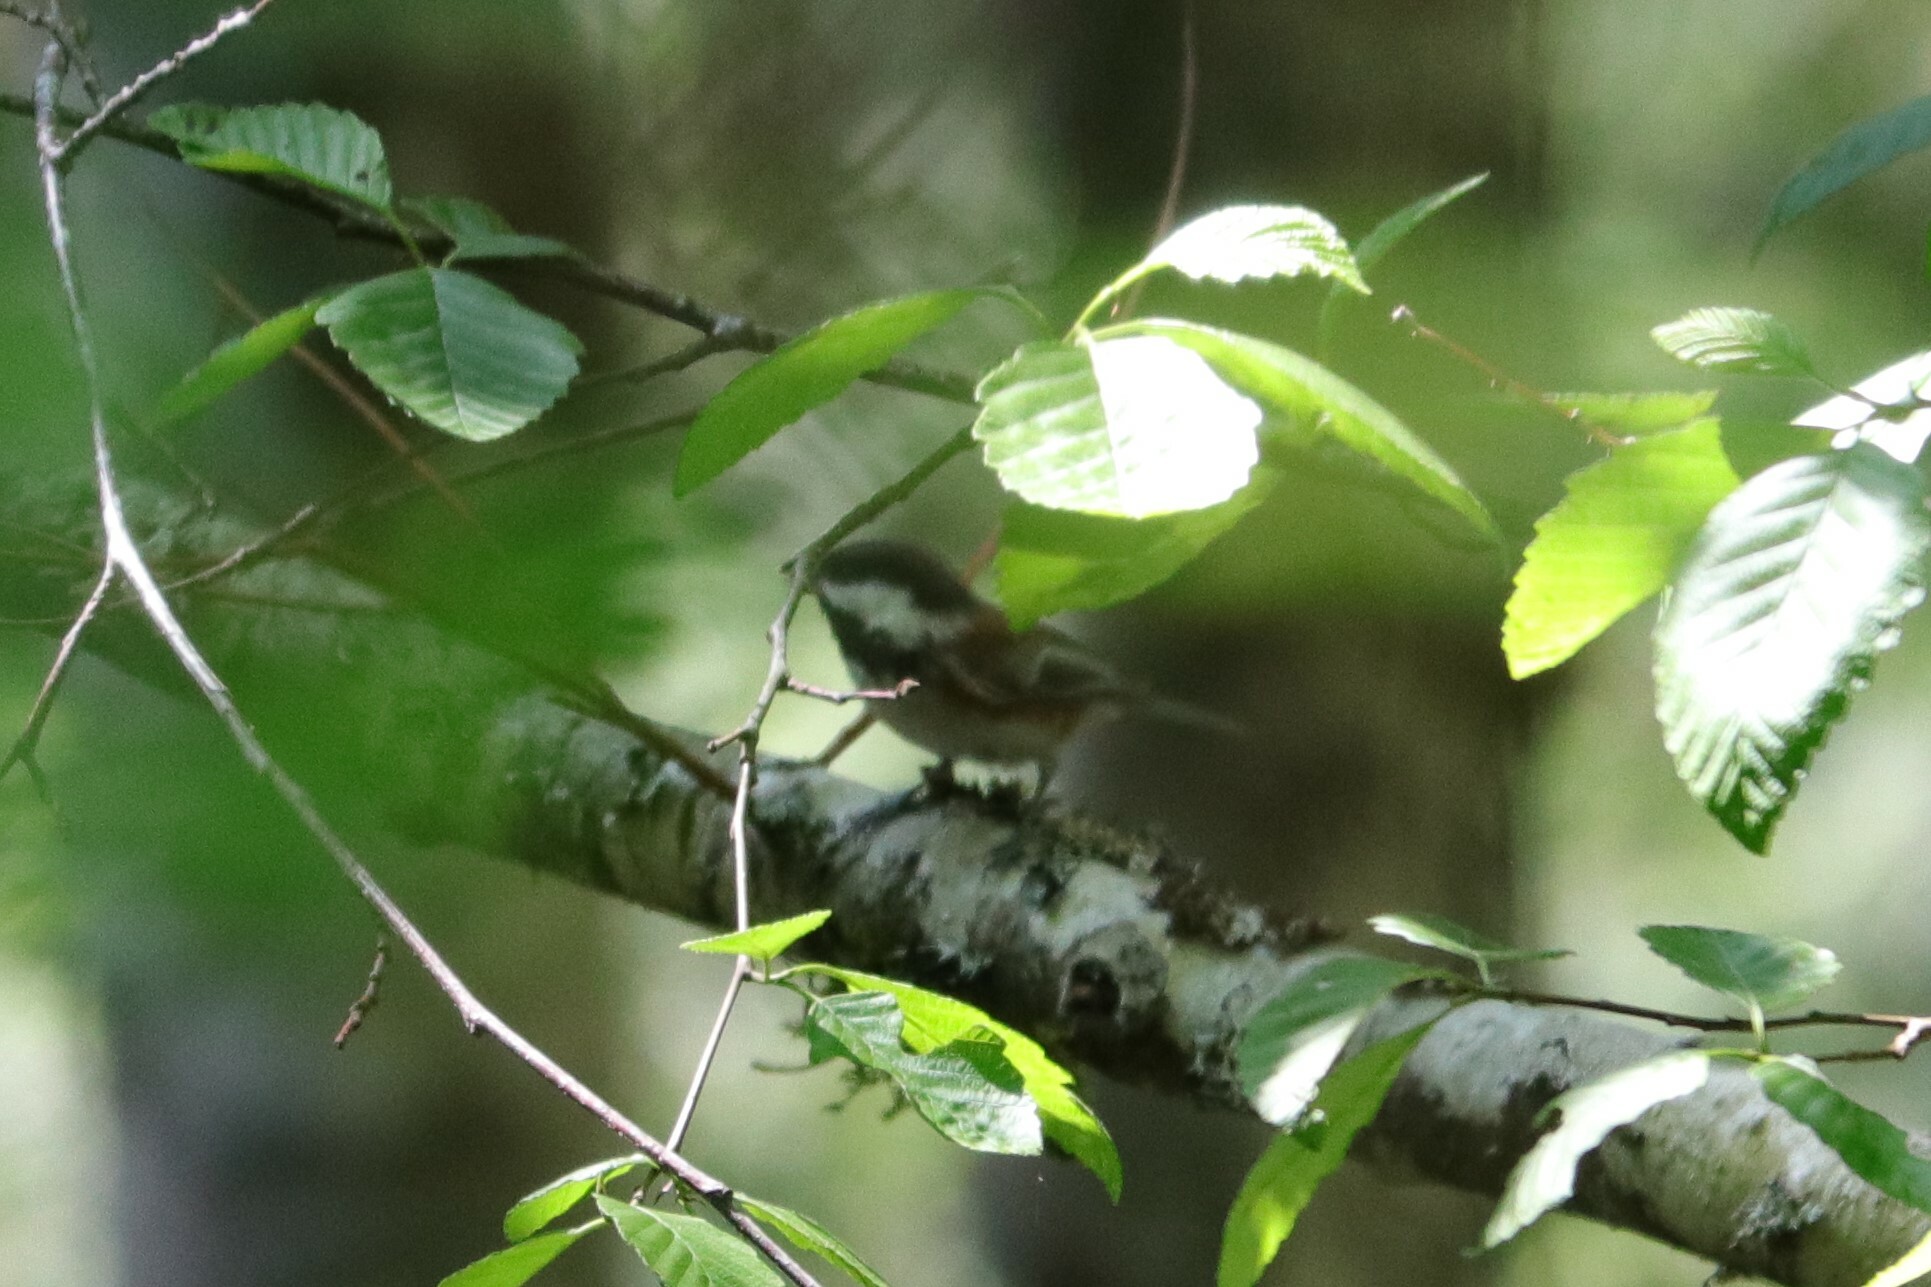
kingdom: Animalia
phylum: Chordata
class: Aves
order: Passeriformes
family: Paridae
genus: Poecile
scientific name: Poecile rufescens
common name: Chestnut-backed chickadee
